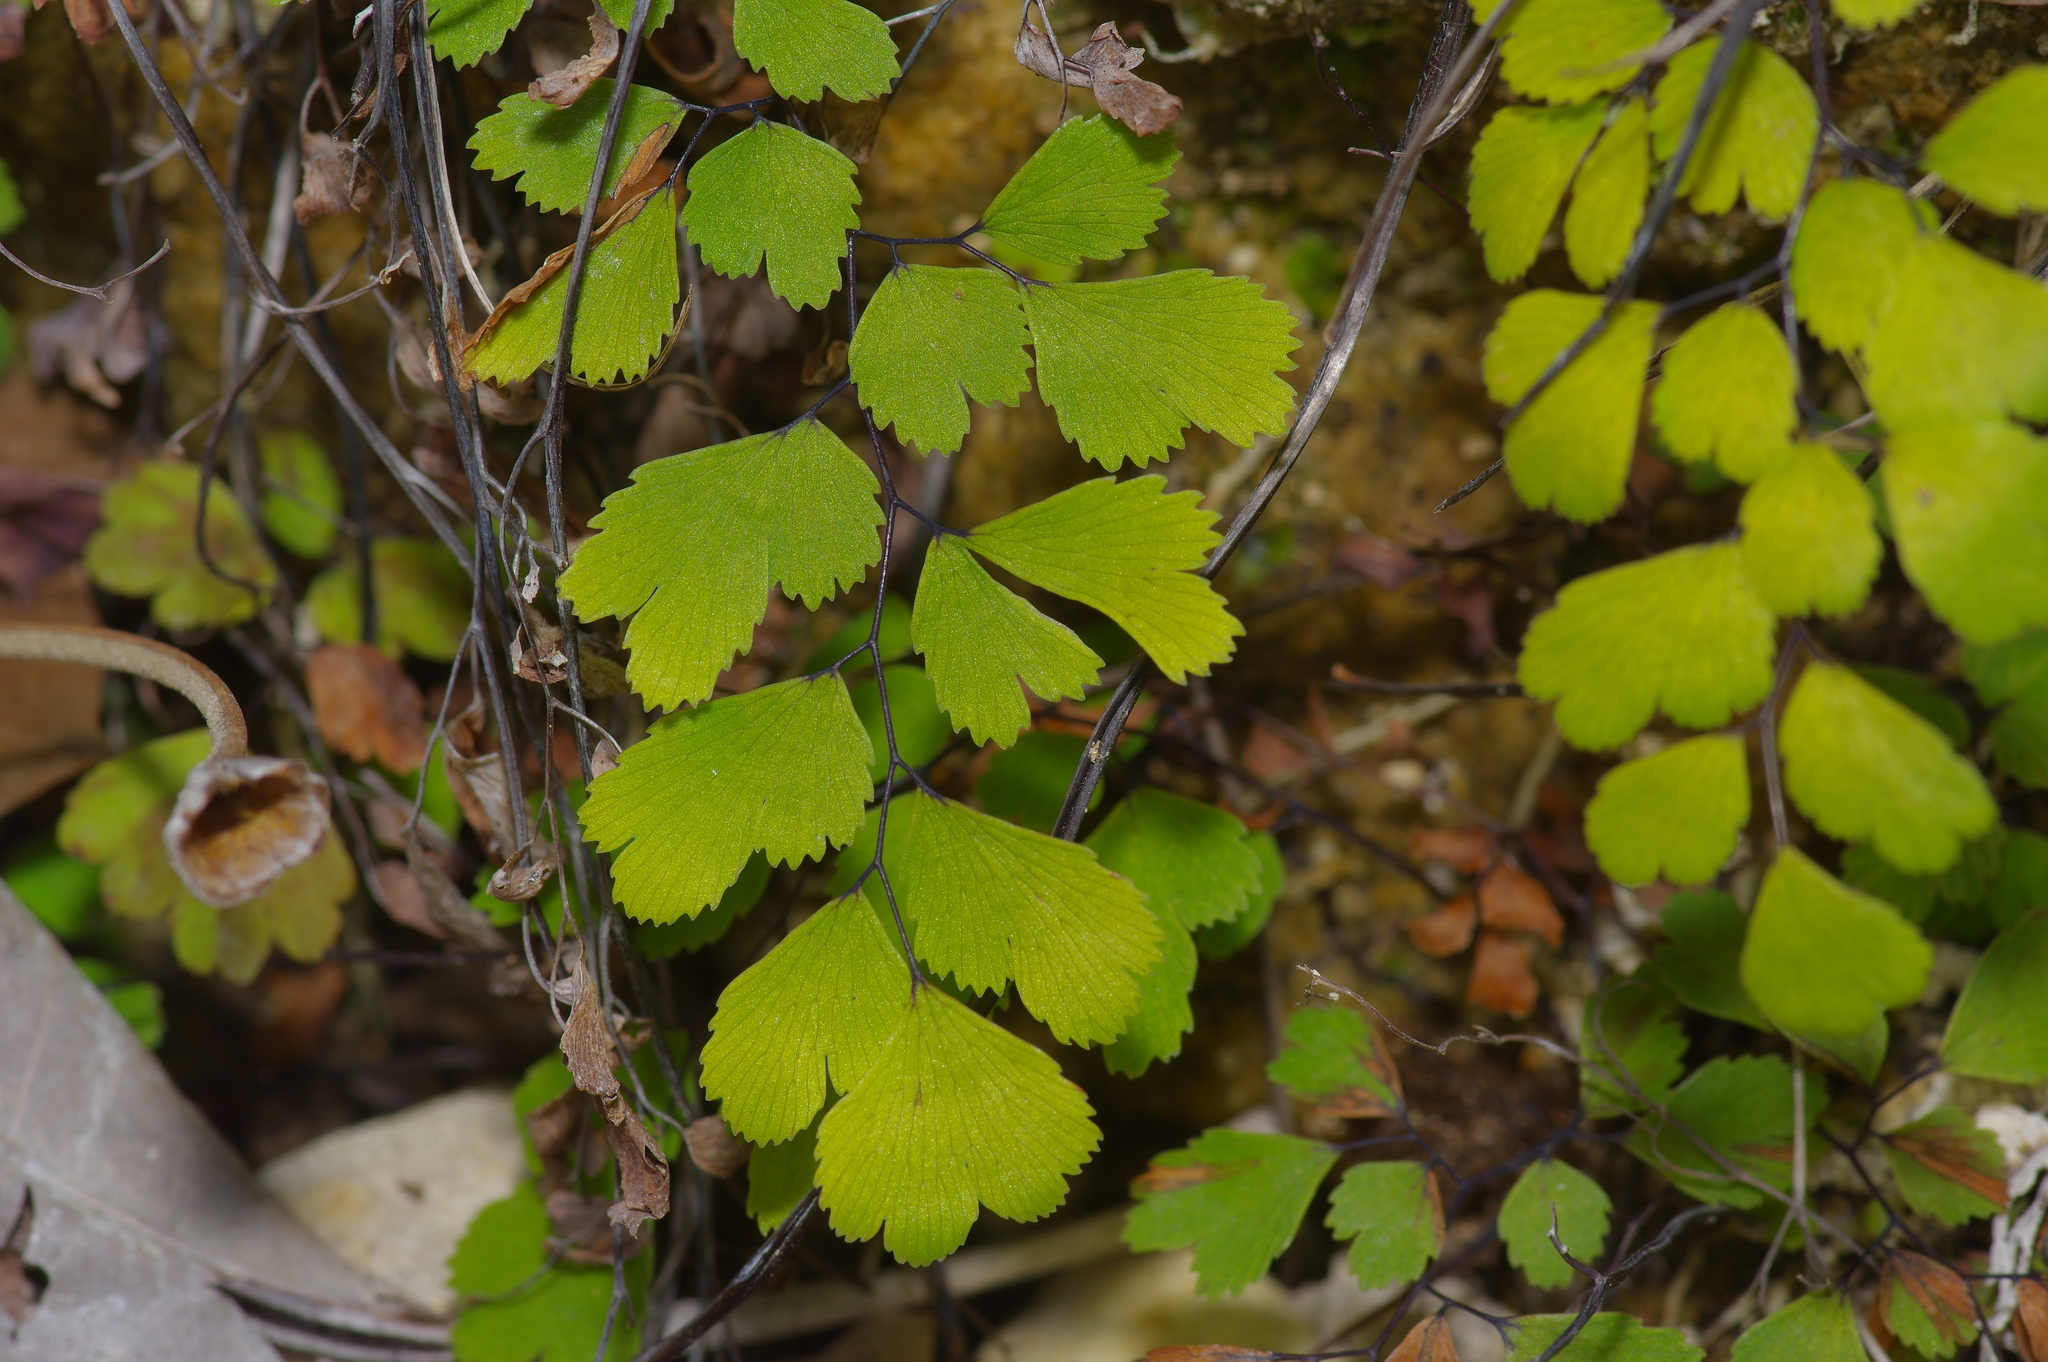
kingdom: Plantae
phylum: Tracheophyta
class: Polypodiopsida
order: Polypodiales
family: Pteridaceae
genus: Adiantum
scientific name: Adiantum capillus-veneris
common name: Maidenhair fern
